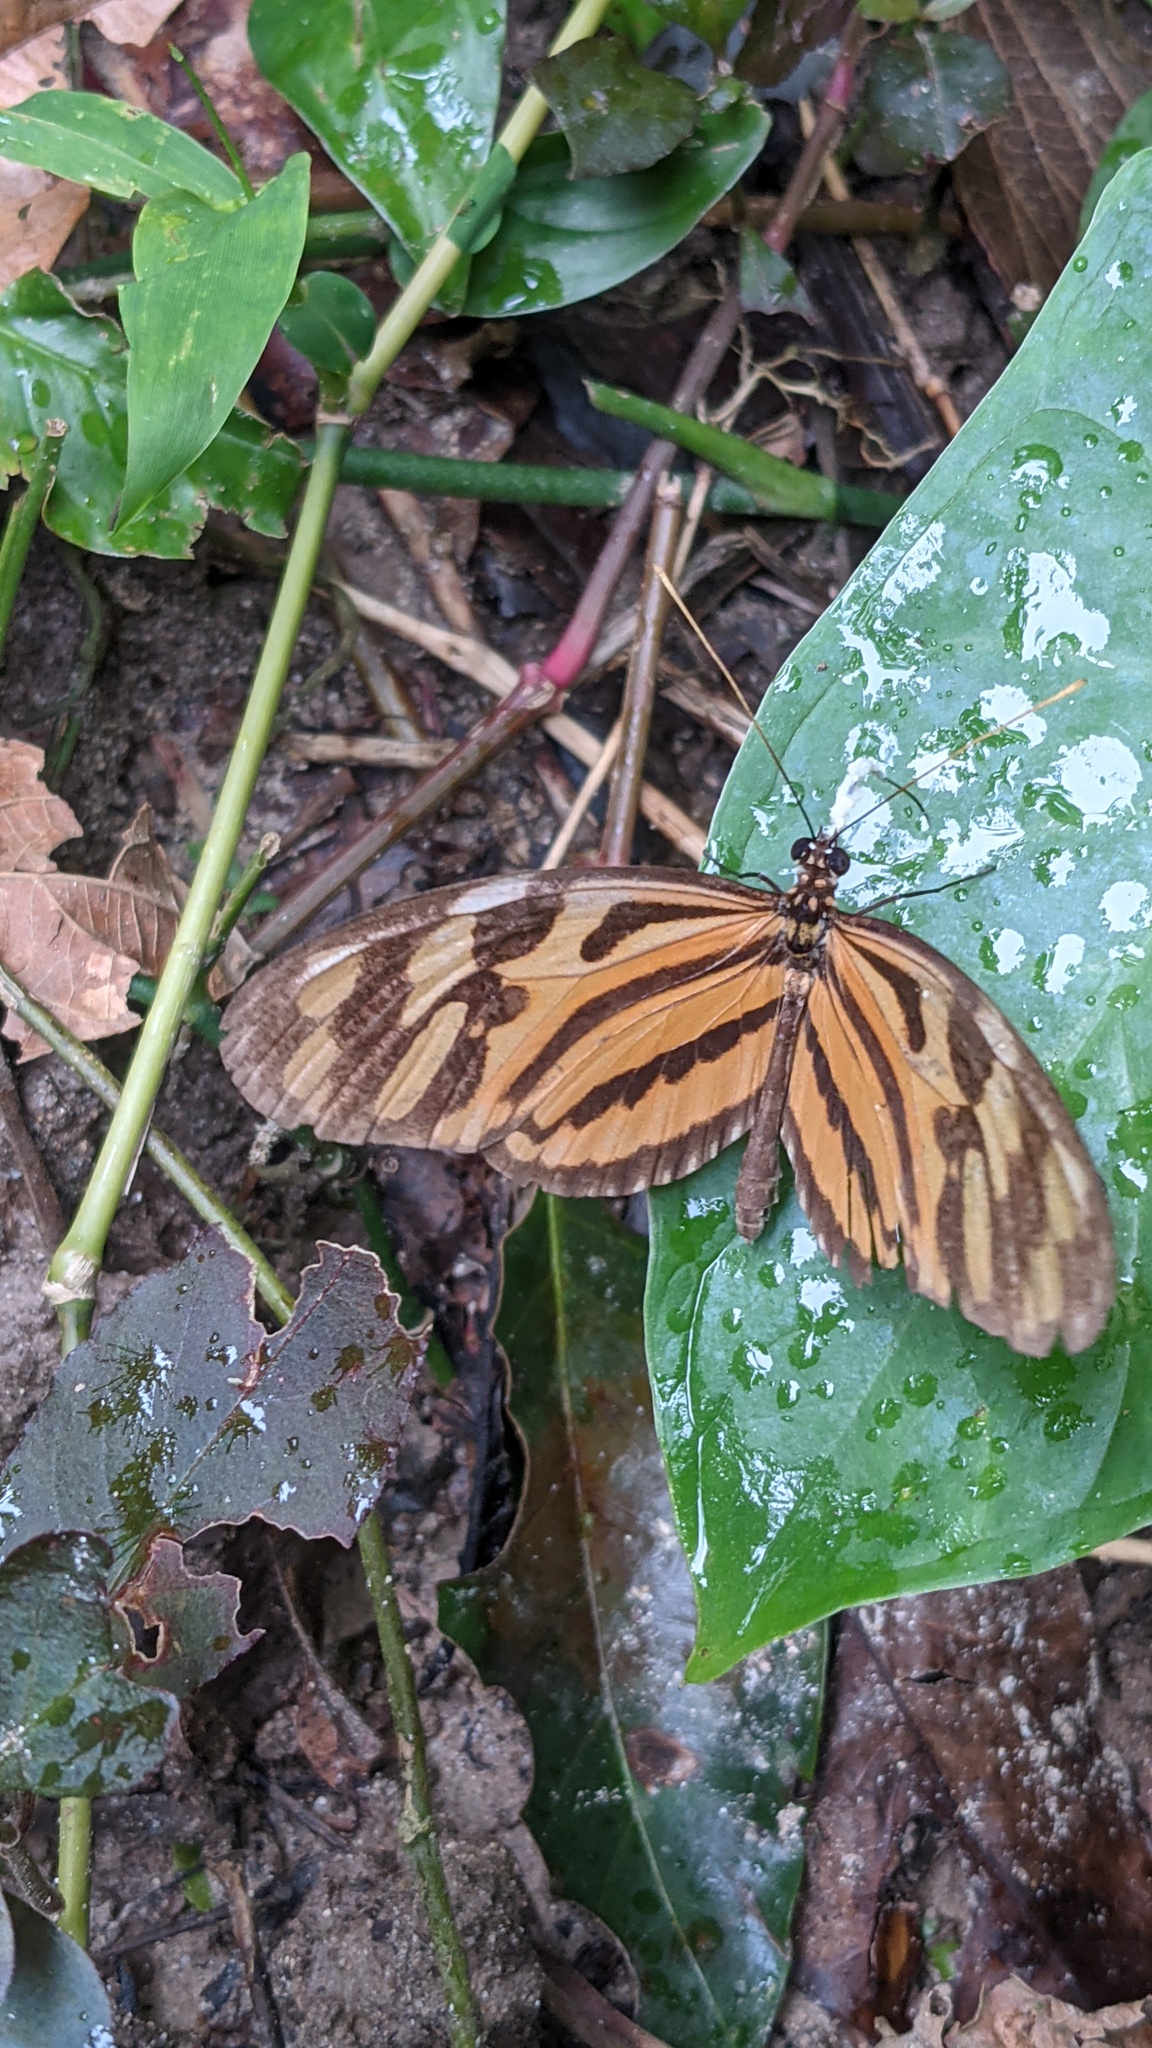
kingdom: Animalia
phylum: Arthropoda
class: Insecta
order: Lepidoptera
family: Nymphalidae
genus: Heliconius
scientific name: Heliconius ethilla
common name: Ethilia longwing
